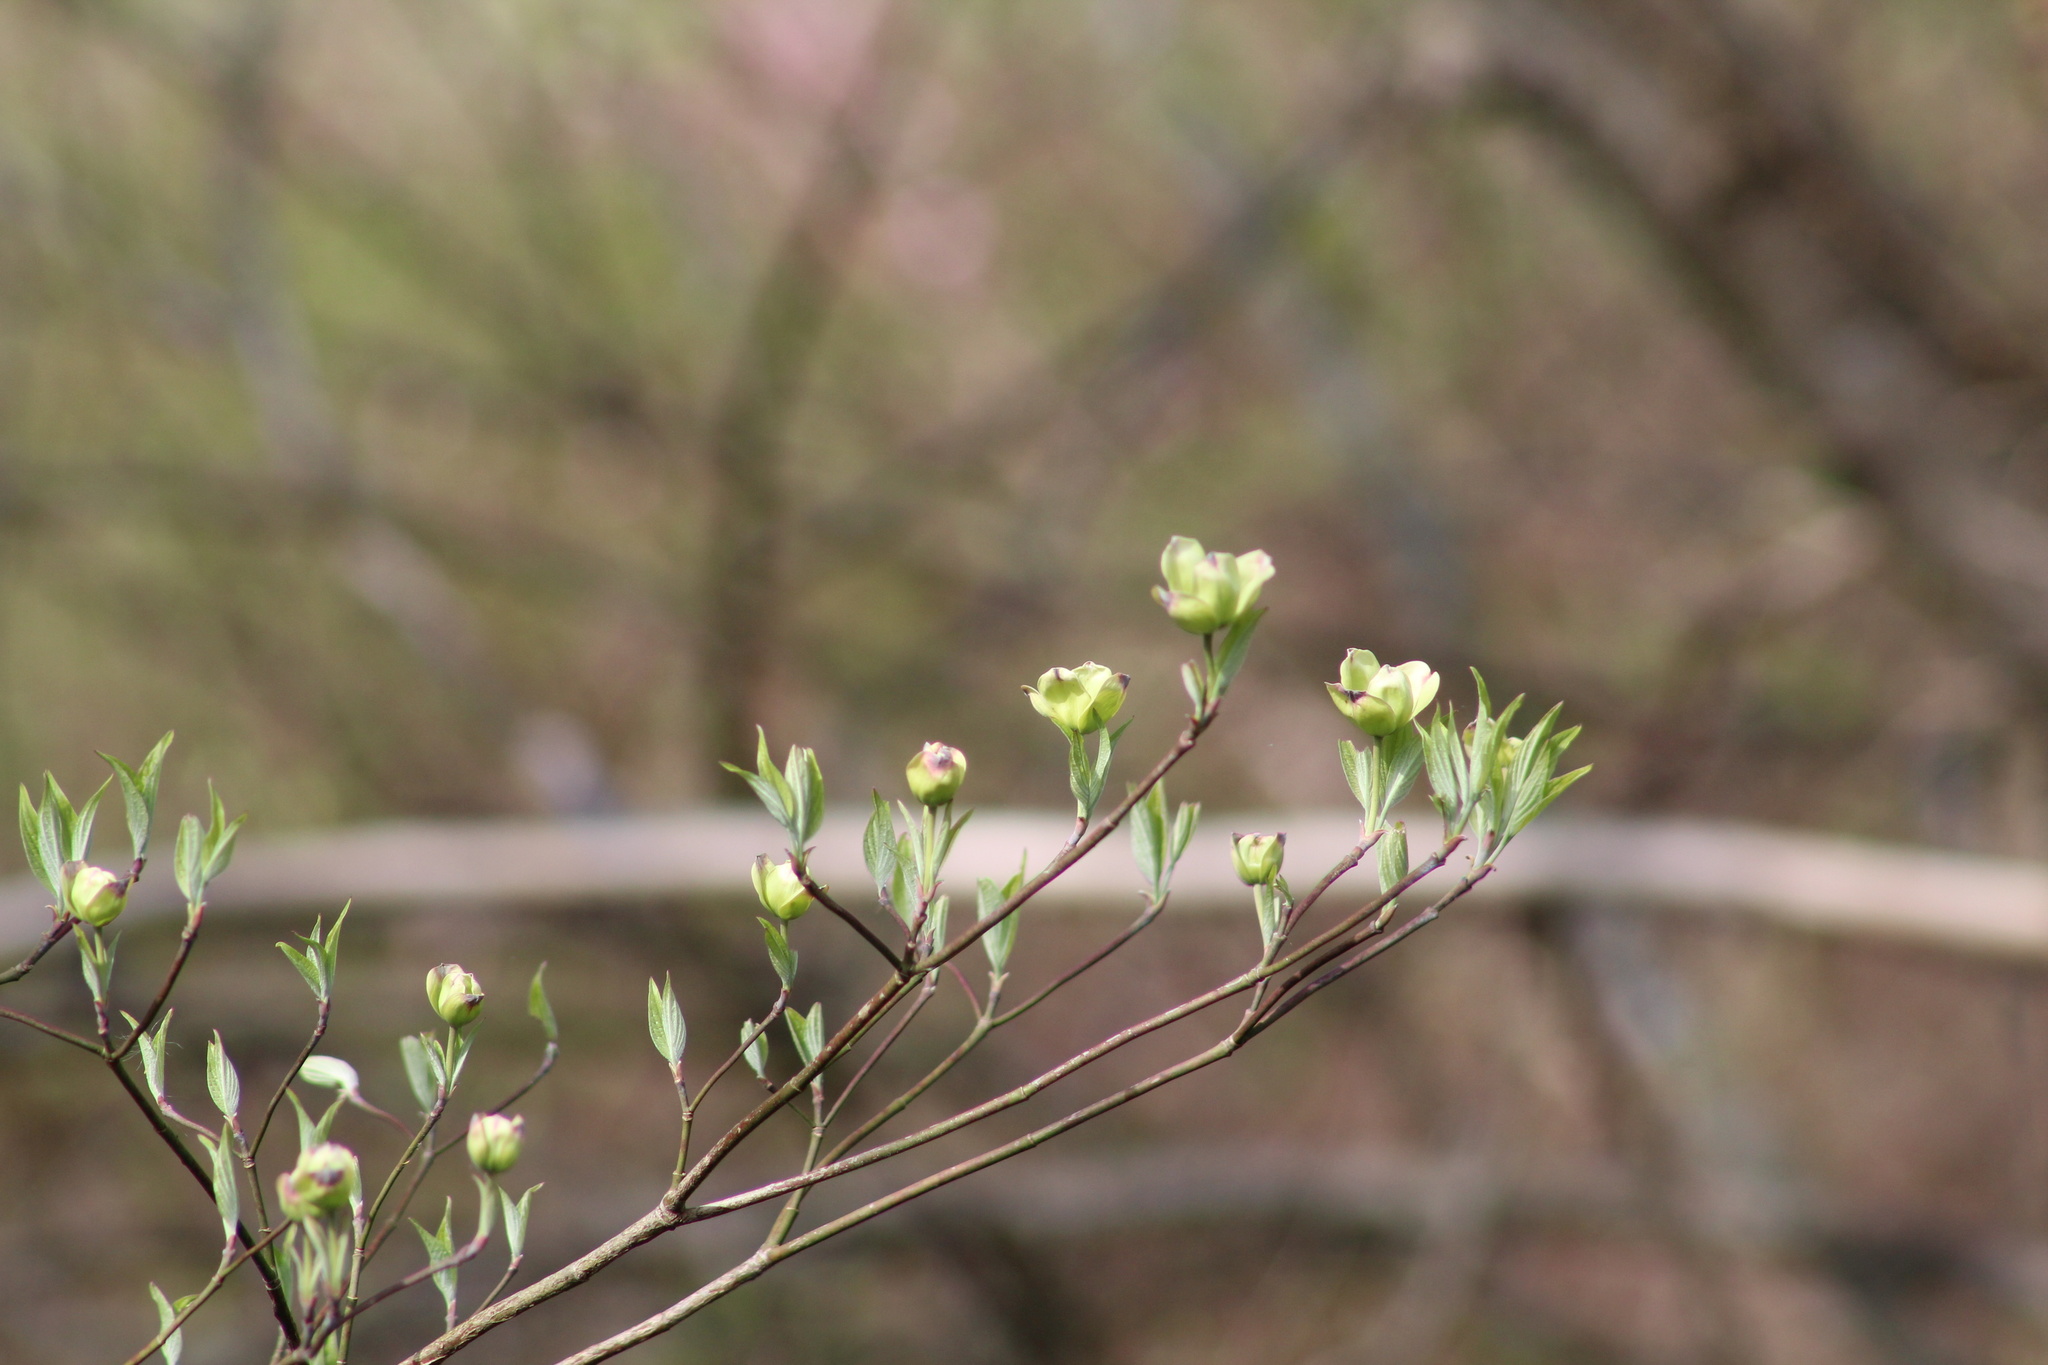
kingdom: Plantae
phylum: Tracheophyta
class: Magnoliopsida
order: Cornales
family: Cornaceae
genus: Cornus
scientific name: Cornus florida
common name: Flowering dogwood
